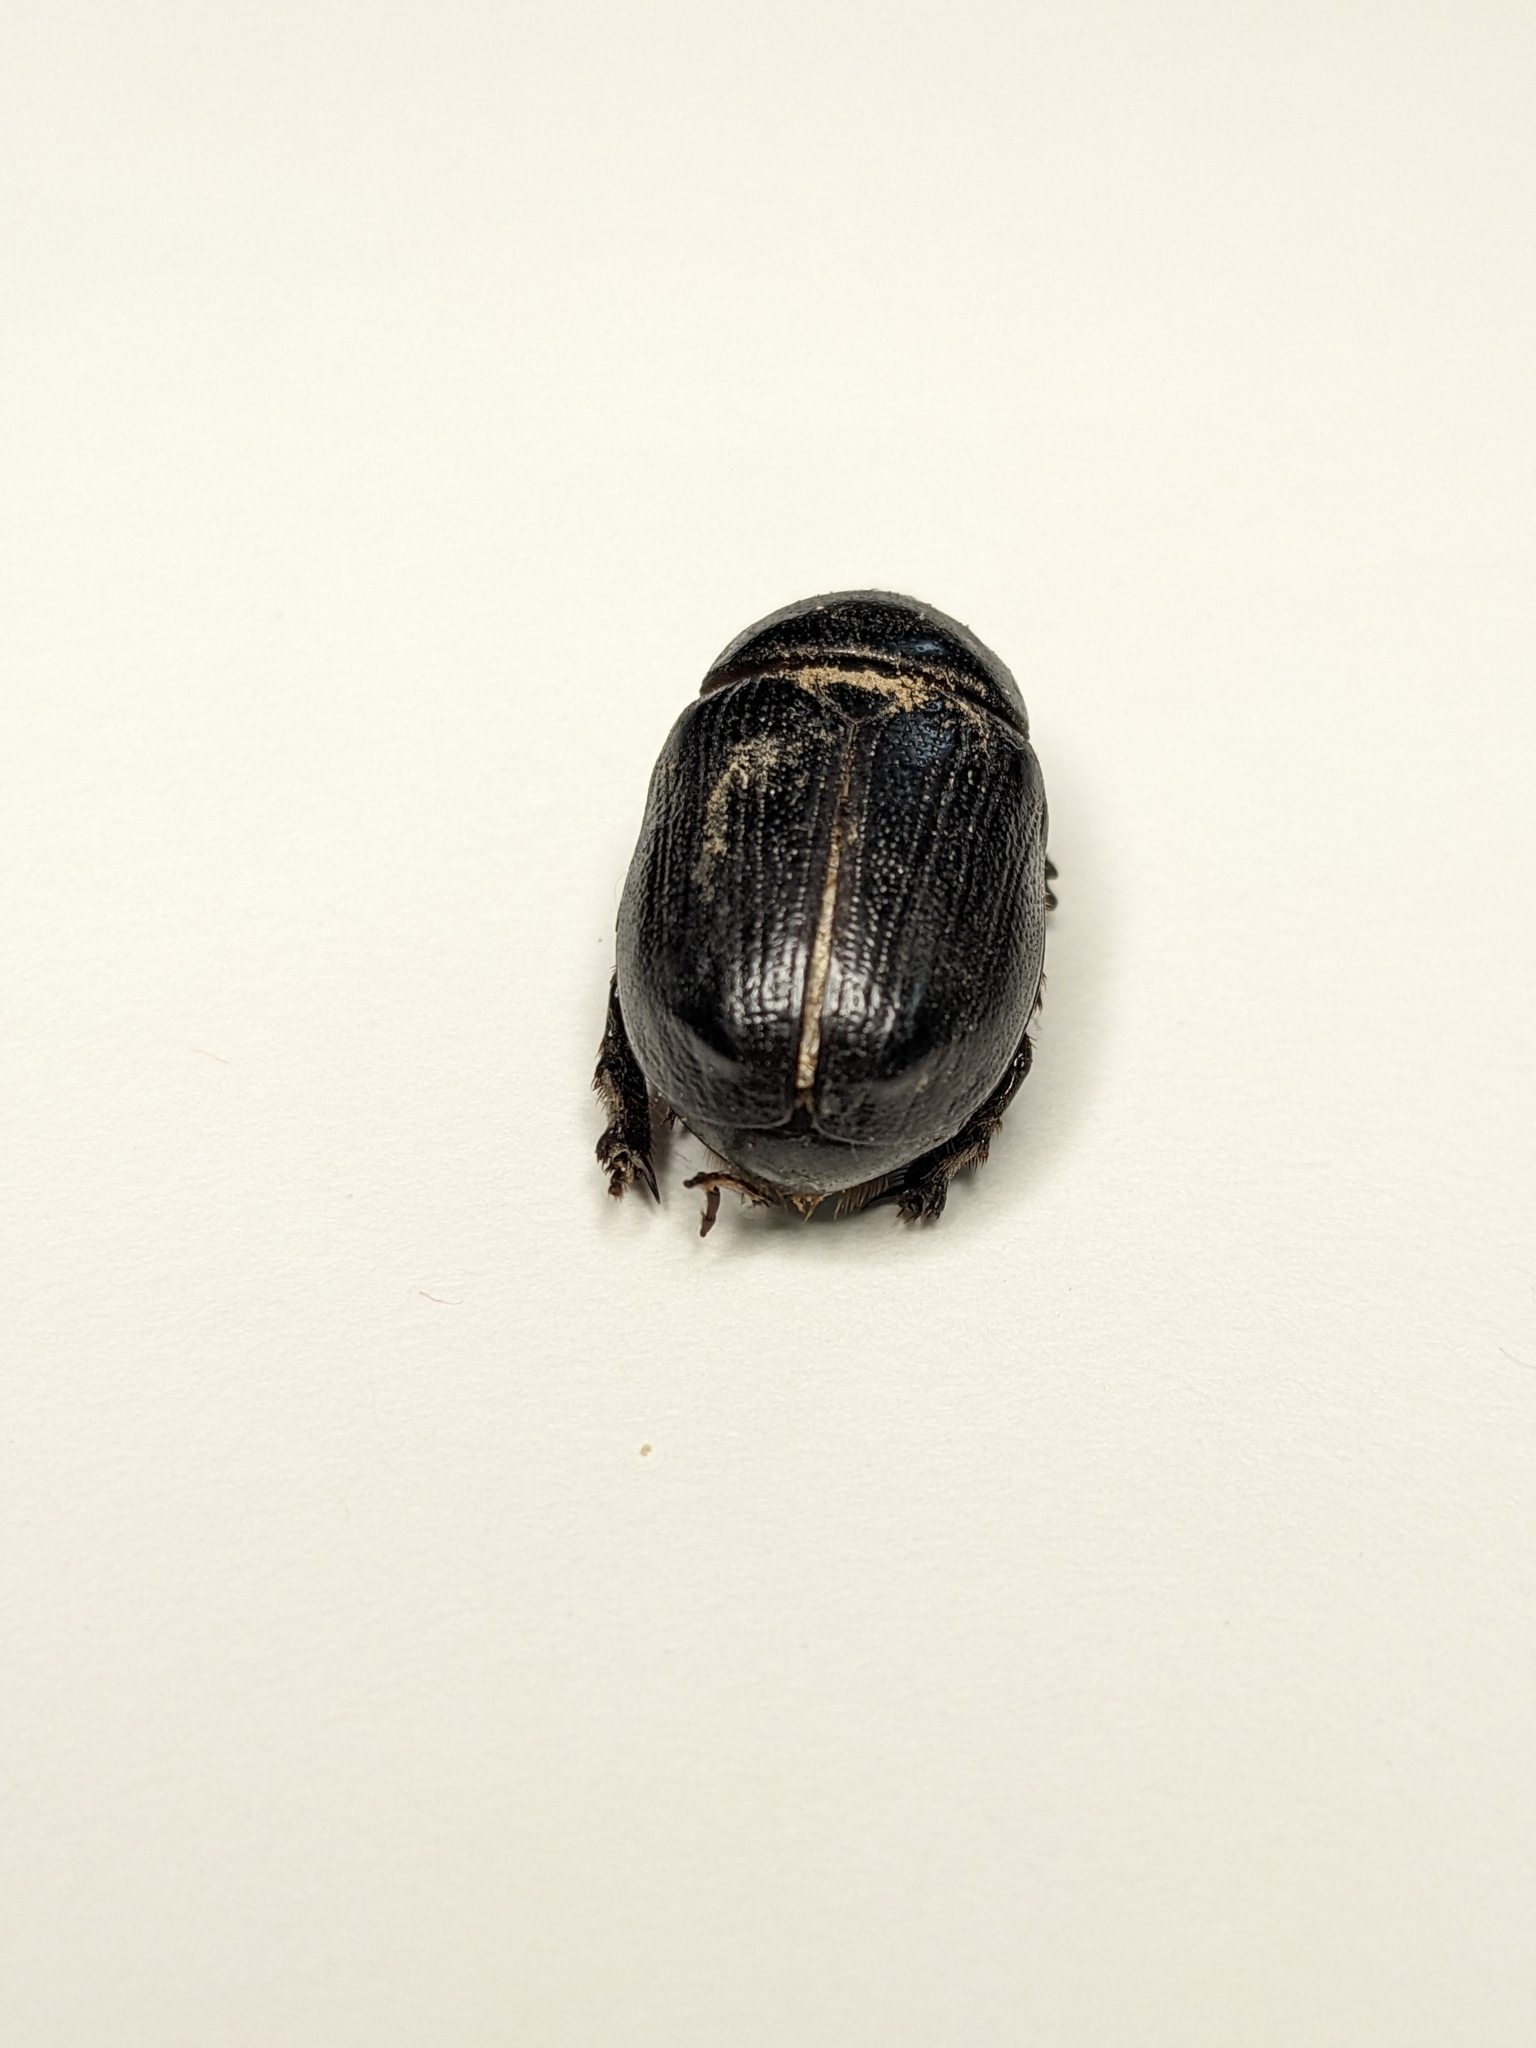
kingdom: Animalia
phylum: Arthropoda
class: Insecta
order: Coleoptera
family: Scarabaeidae
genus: Ligyrus
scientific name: Ligyrus relictus
